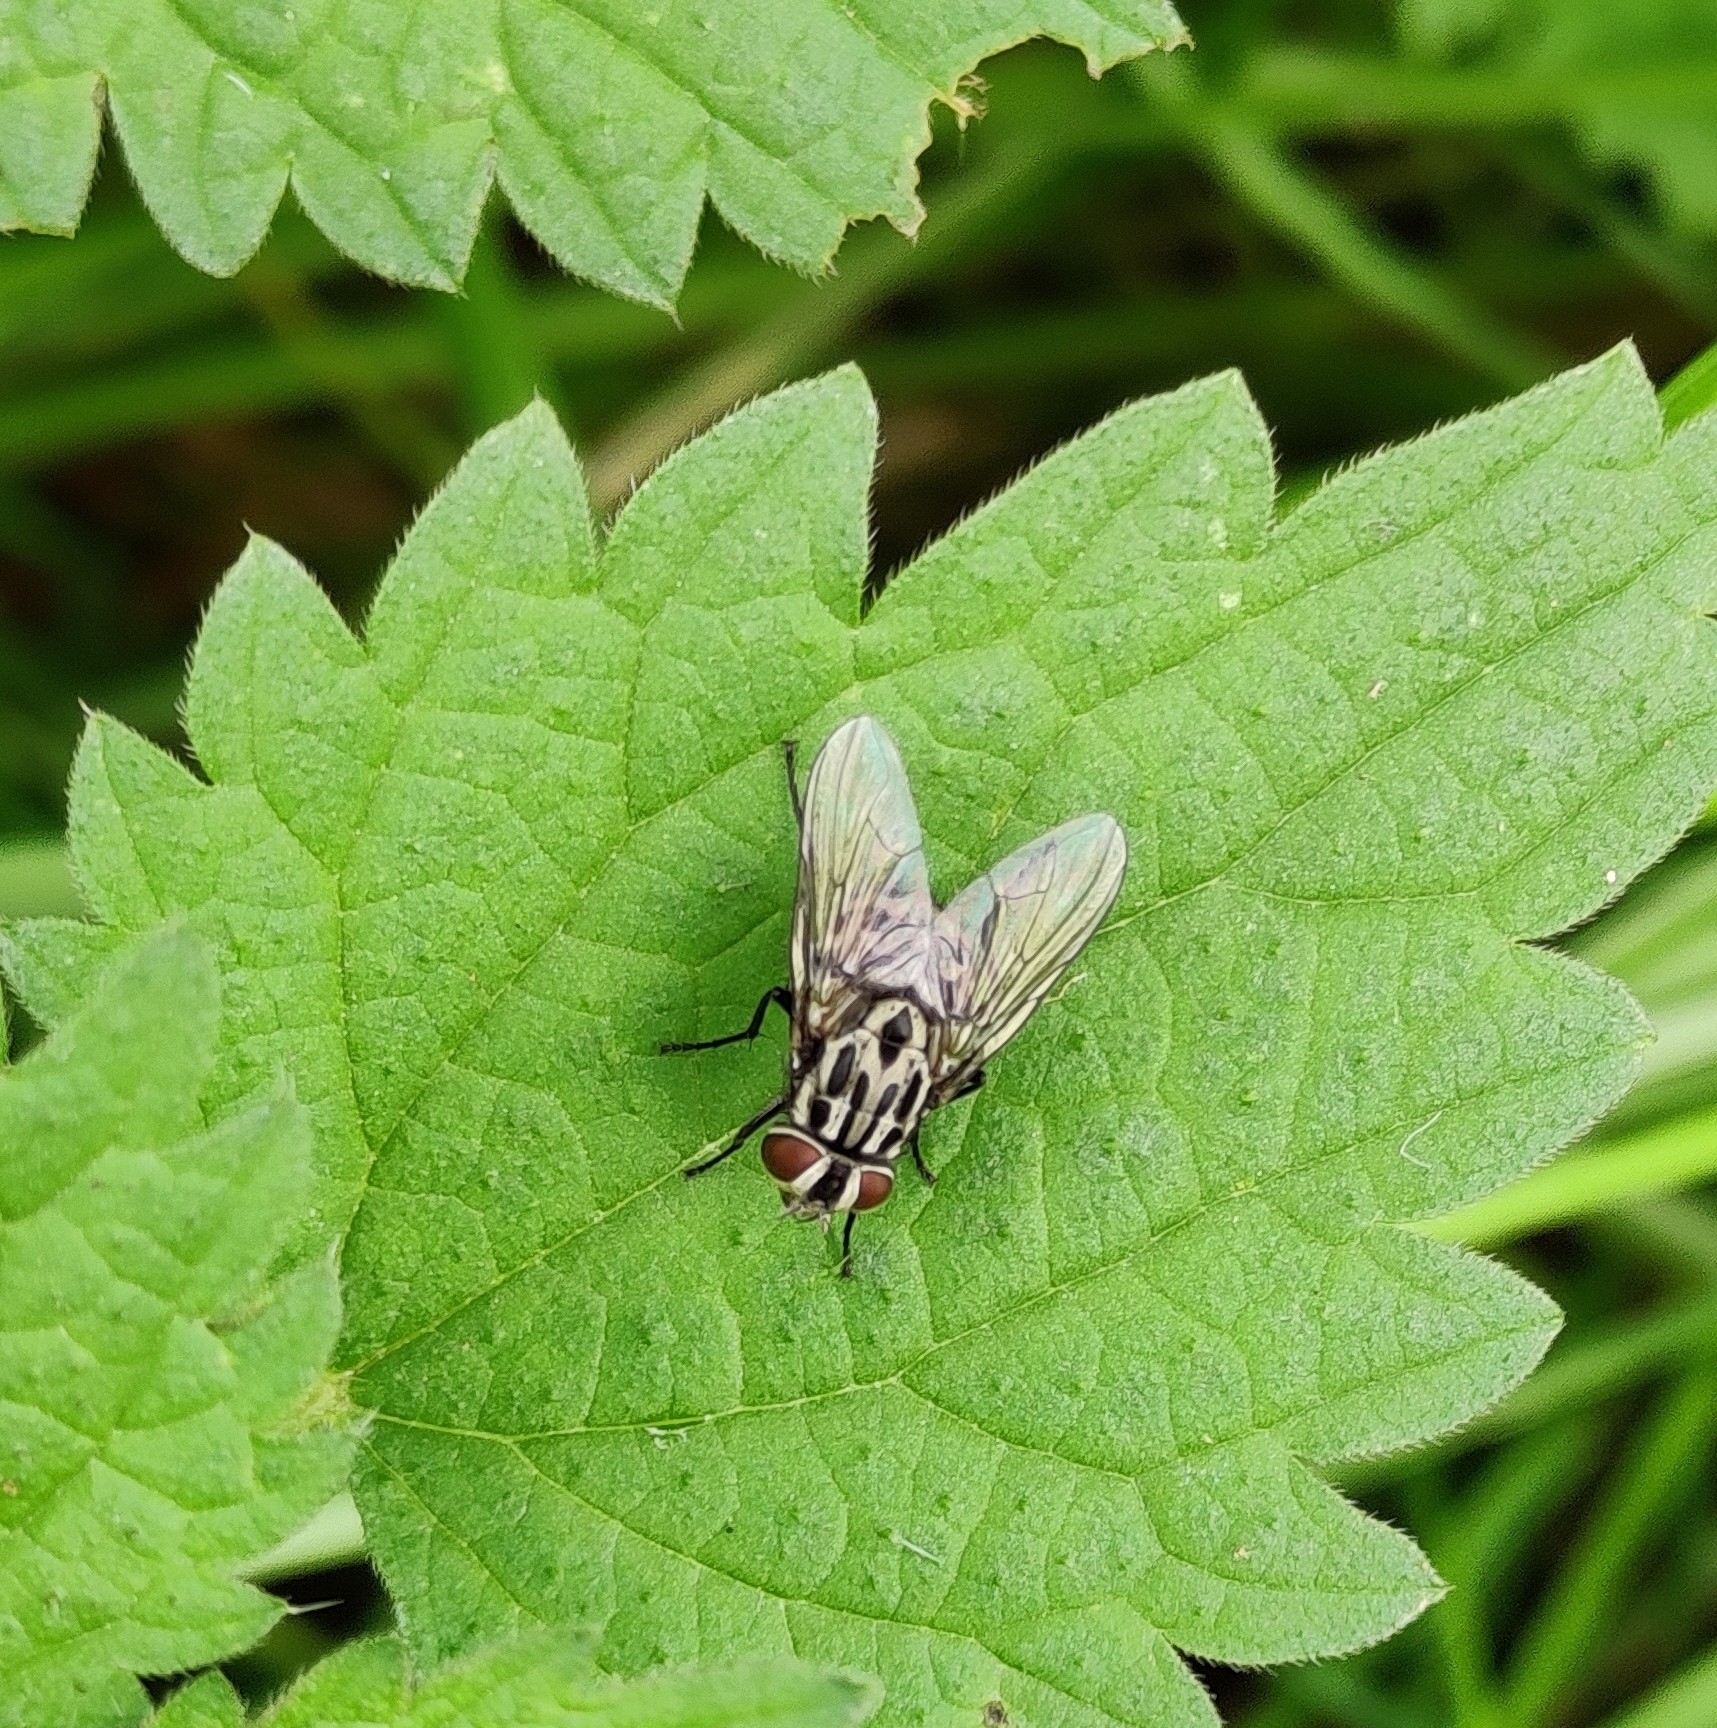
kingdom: Animalia
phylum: Arthropoda
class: Insecta
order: Diptera
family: Muscidae
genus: Graphomya
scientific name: Graphomya maculata
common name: Muscid fly
